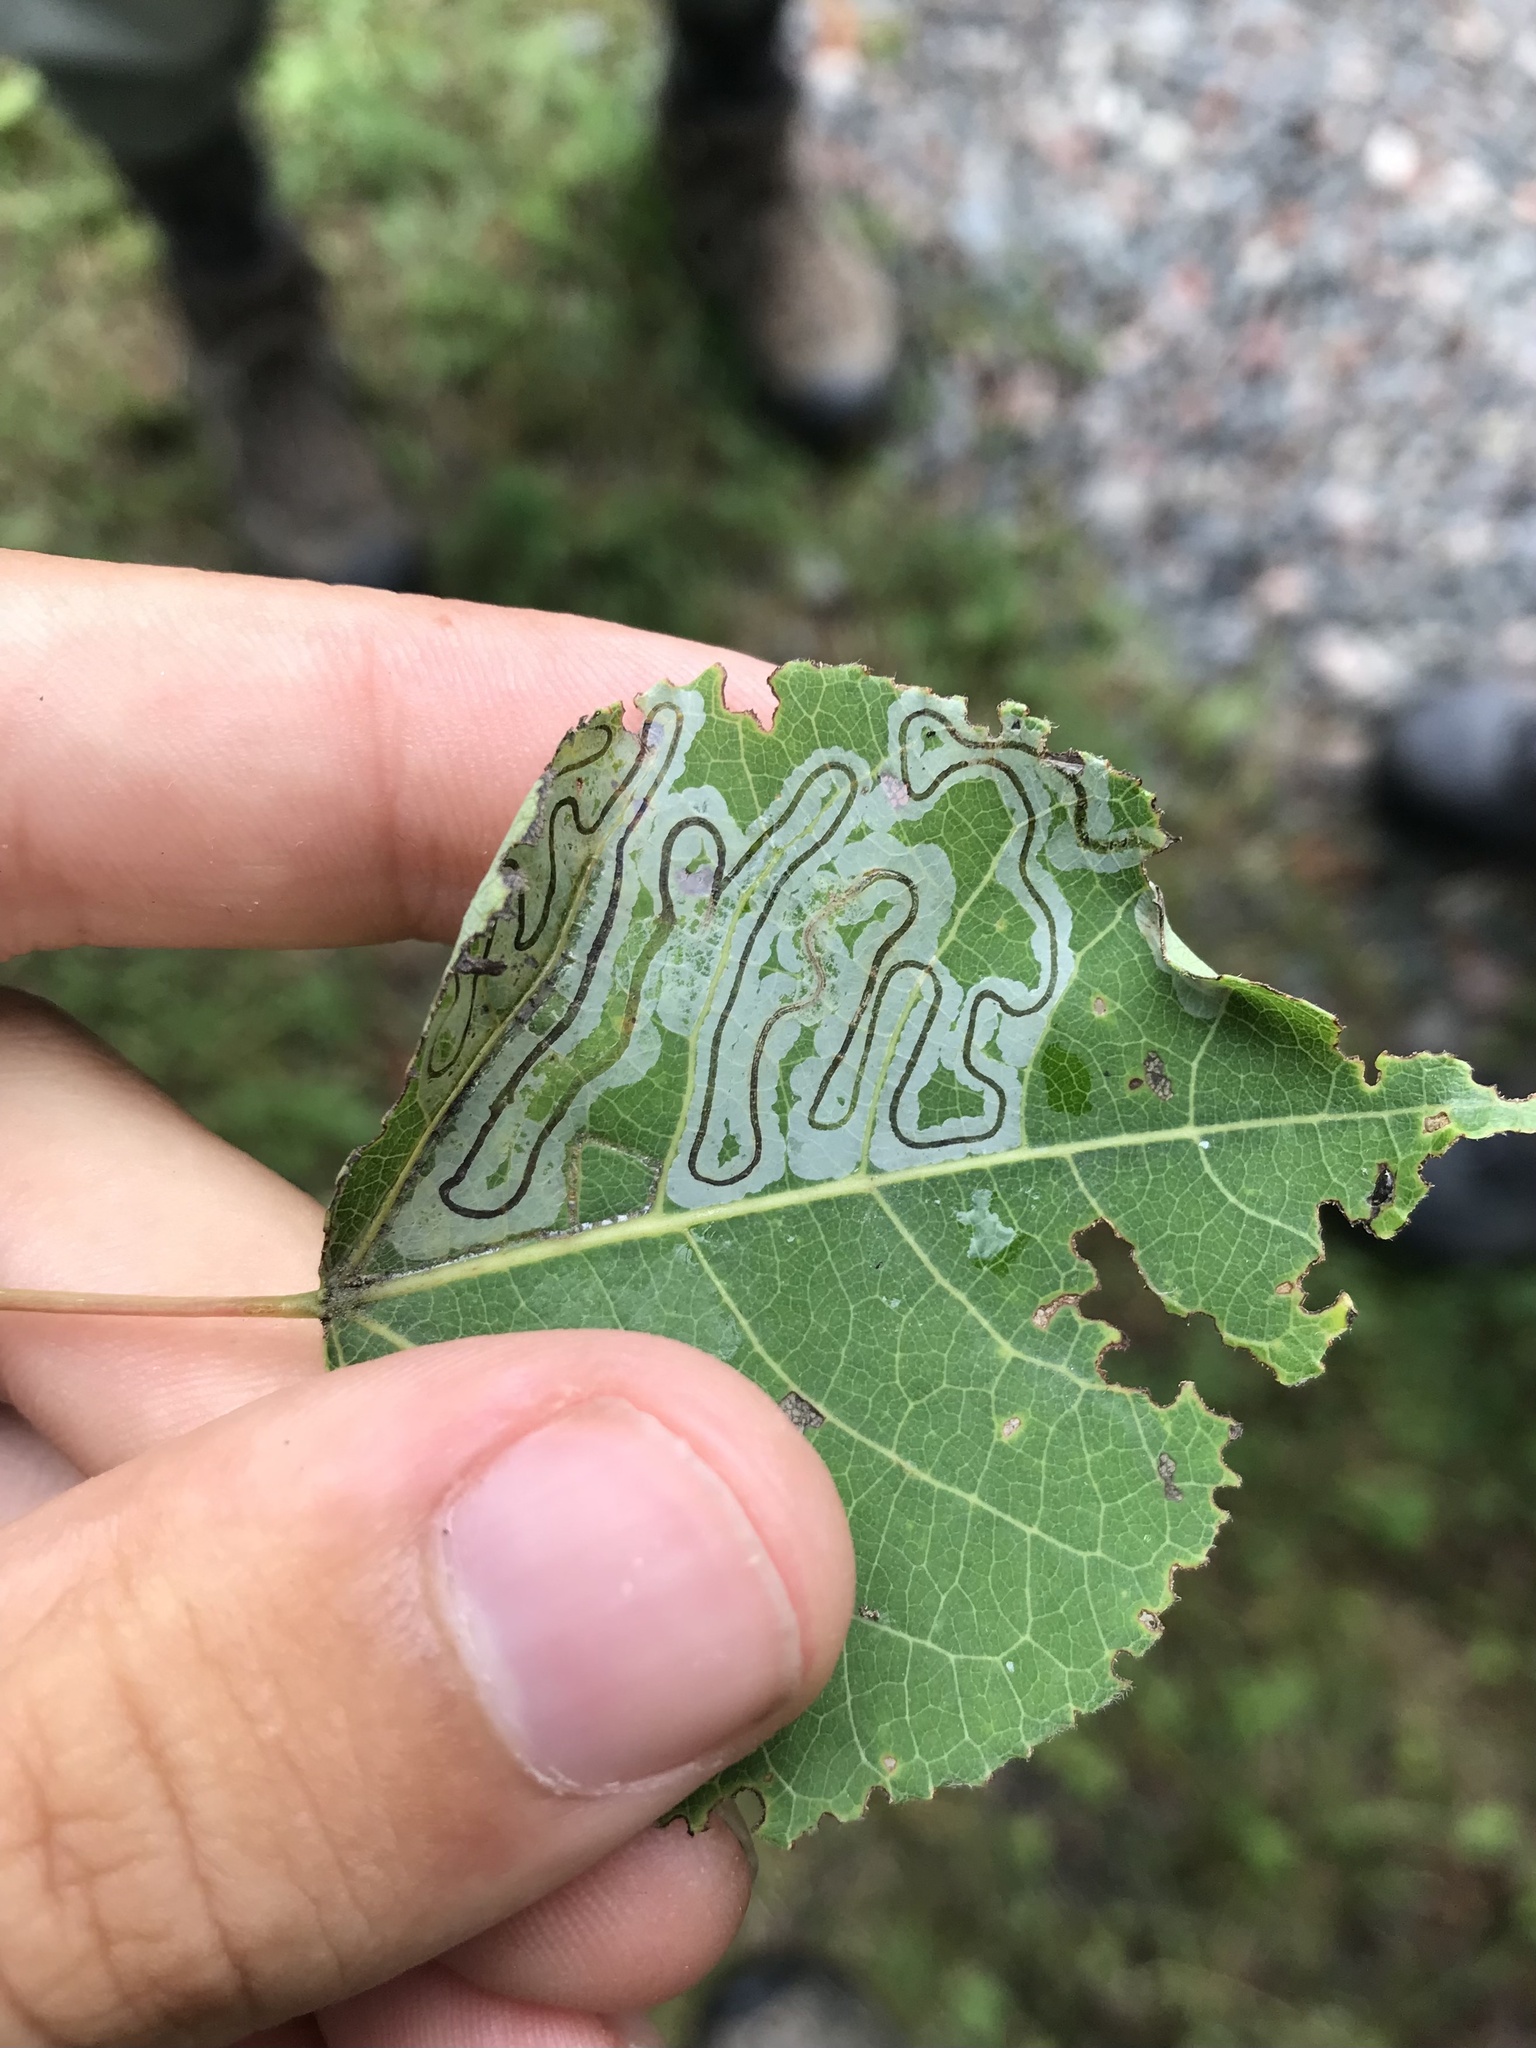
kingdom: Animalia
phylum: Arthropoda
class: Insecta
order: Lepidoptera
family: Gracillariidae
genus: Phyllocnistis
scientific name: Phyllocnistis populiella
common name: Aspen serpentine leafminer moth
